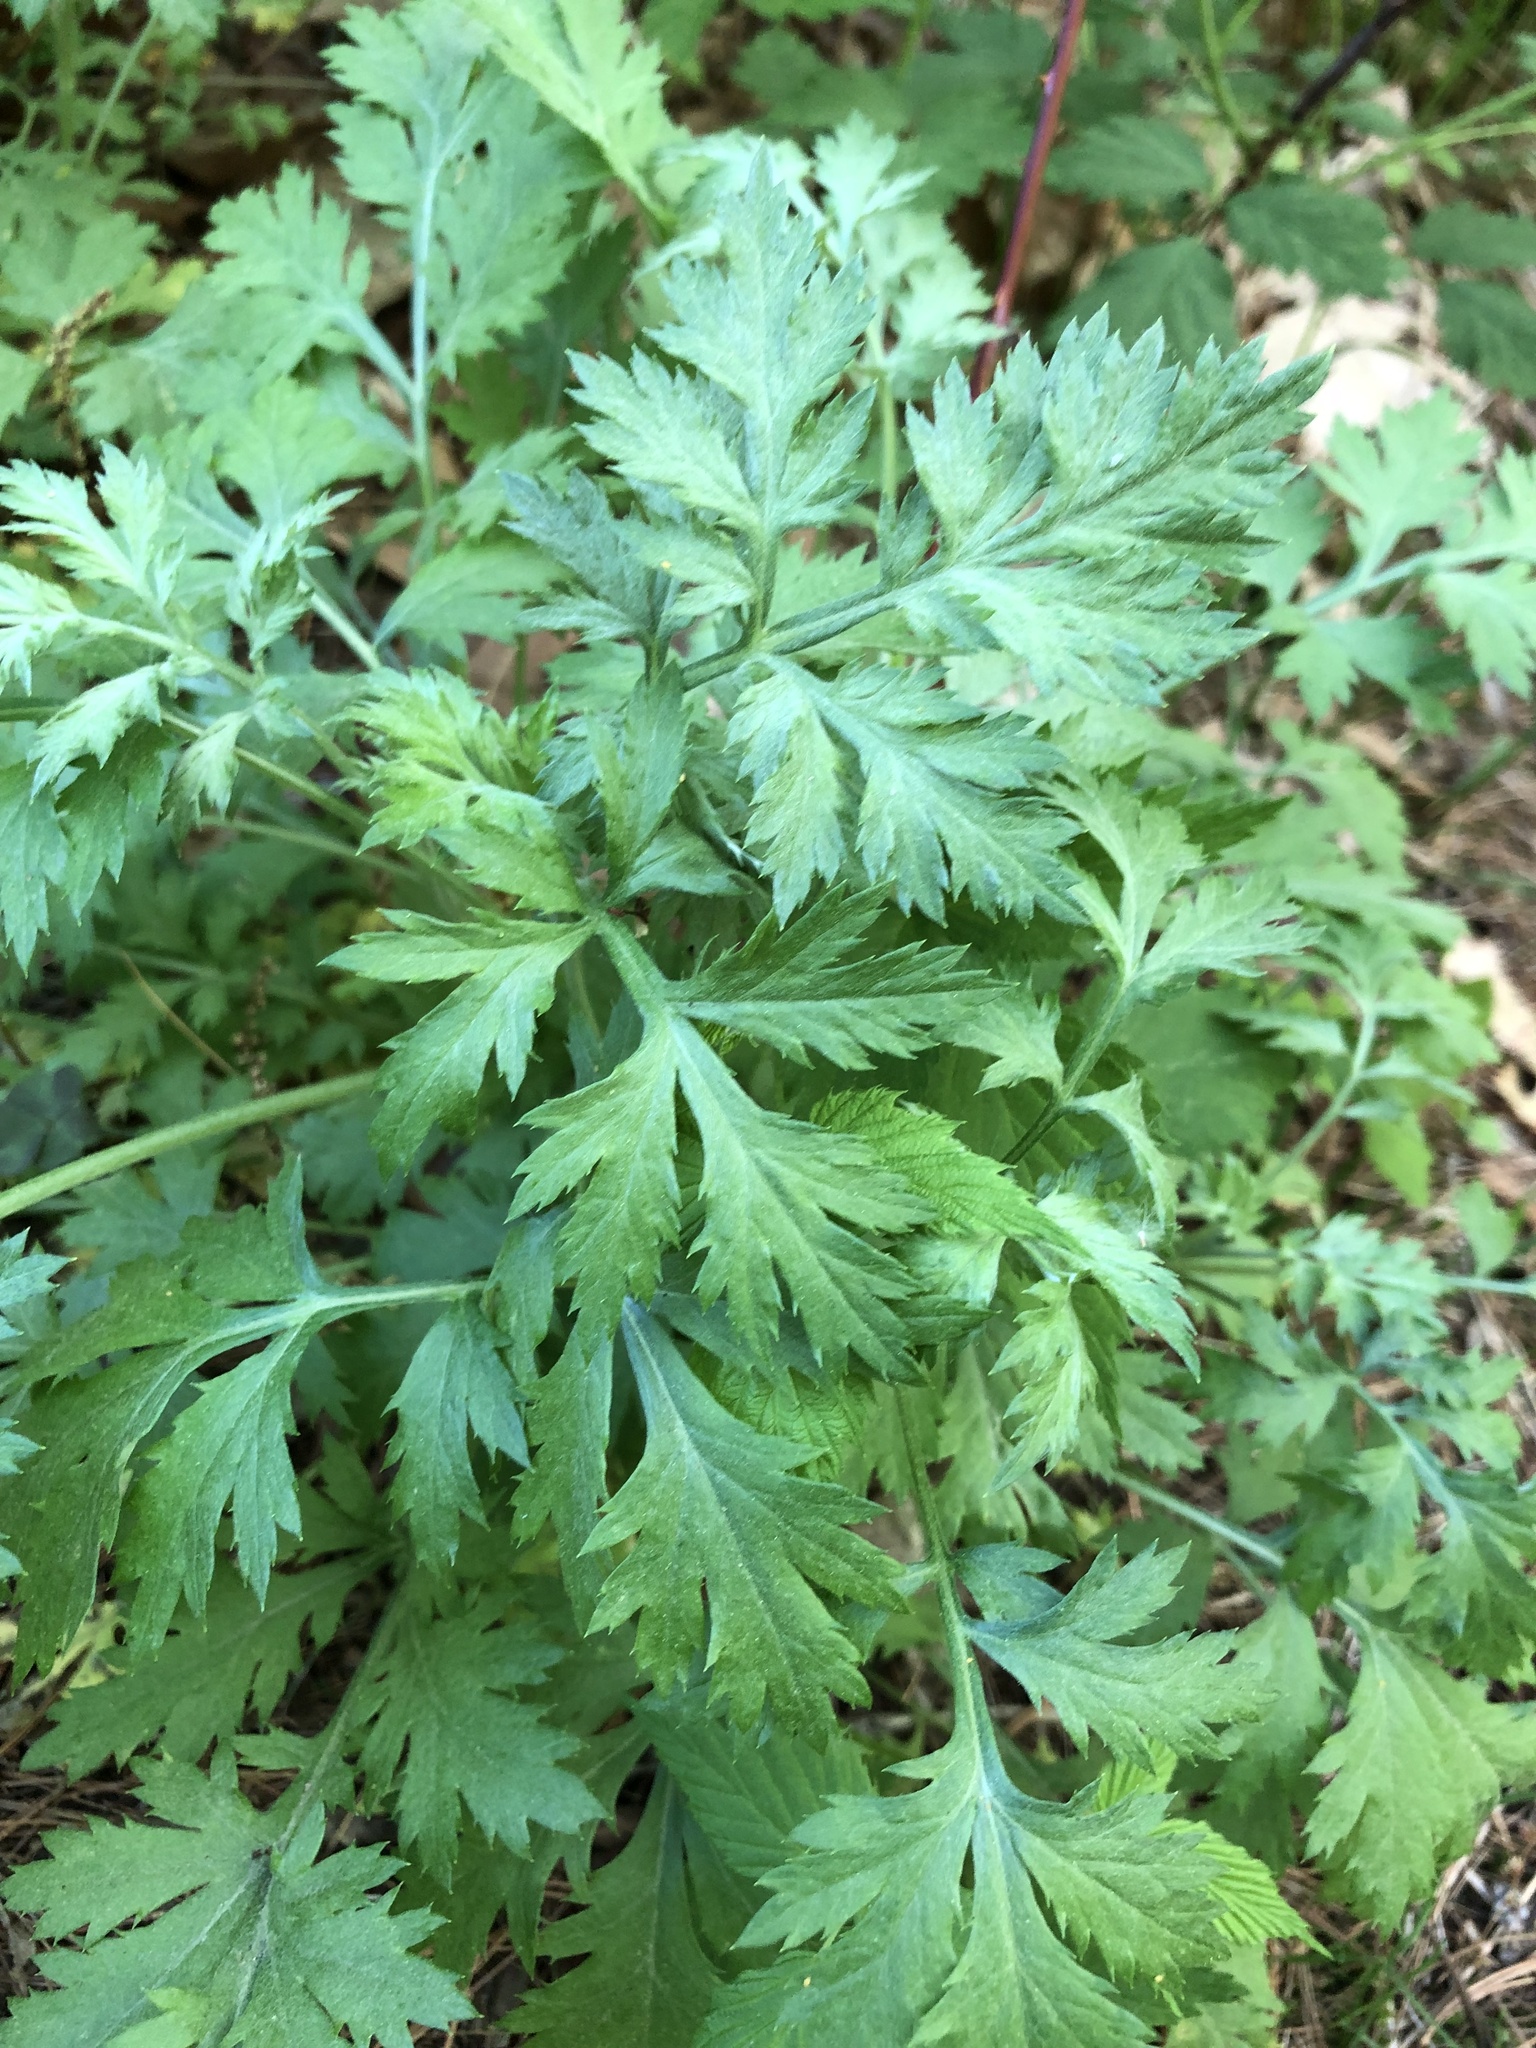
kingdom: Plantae
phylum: Tracheophyta
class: Magnoliopsida
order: Asterales
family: Asteraceae
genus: Artemisia
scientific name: Artemisia vulgaris
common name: Mugwort
